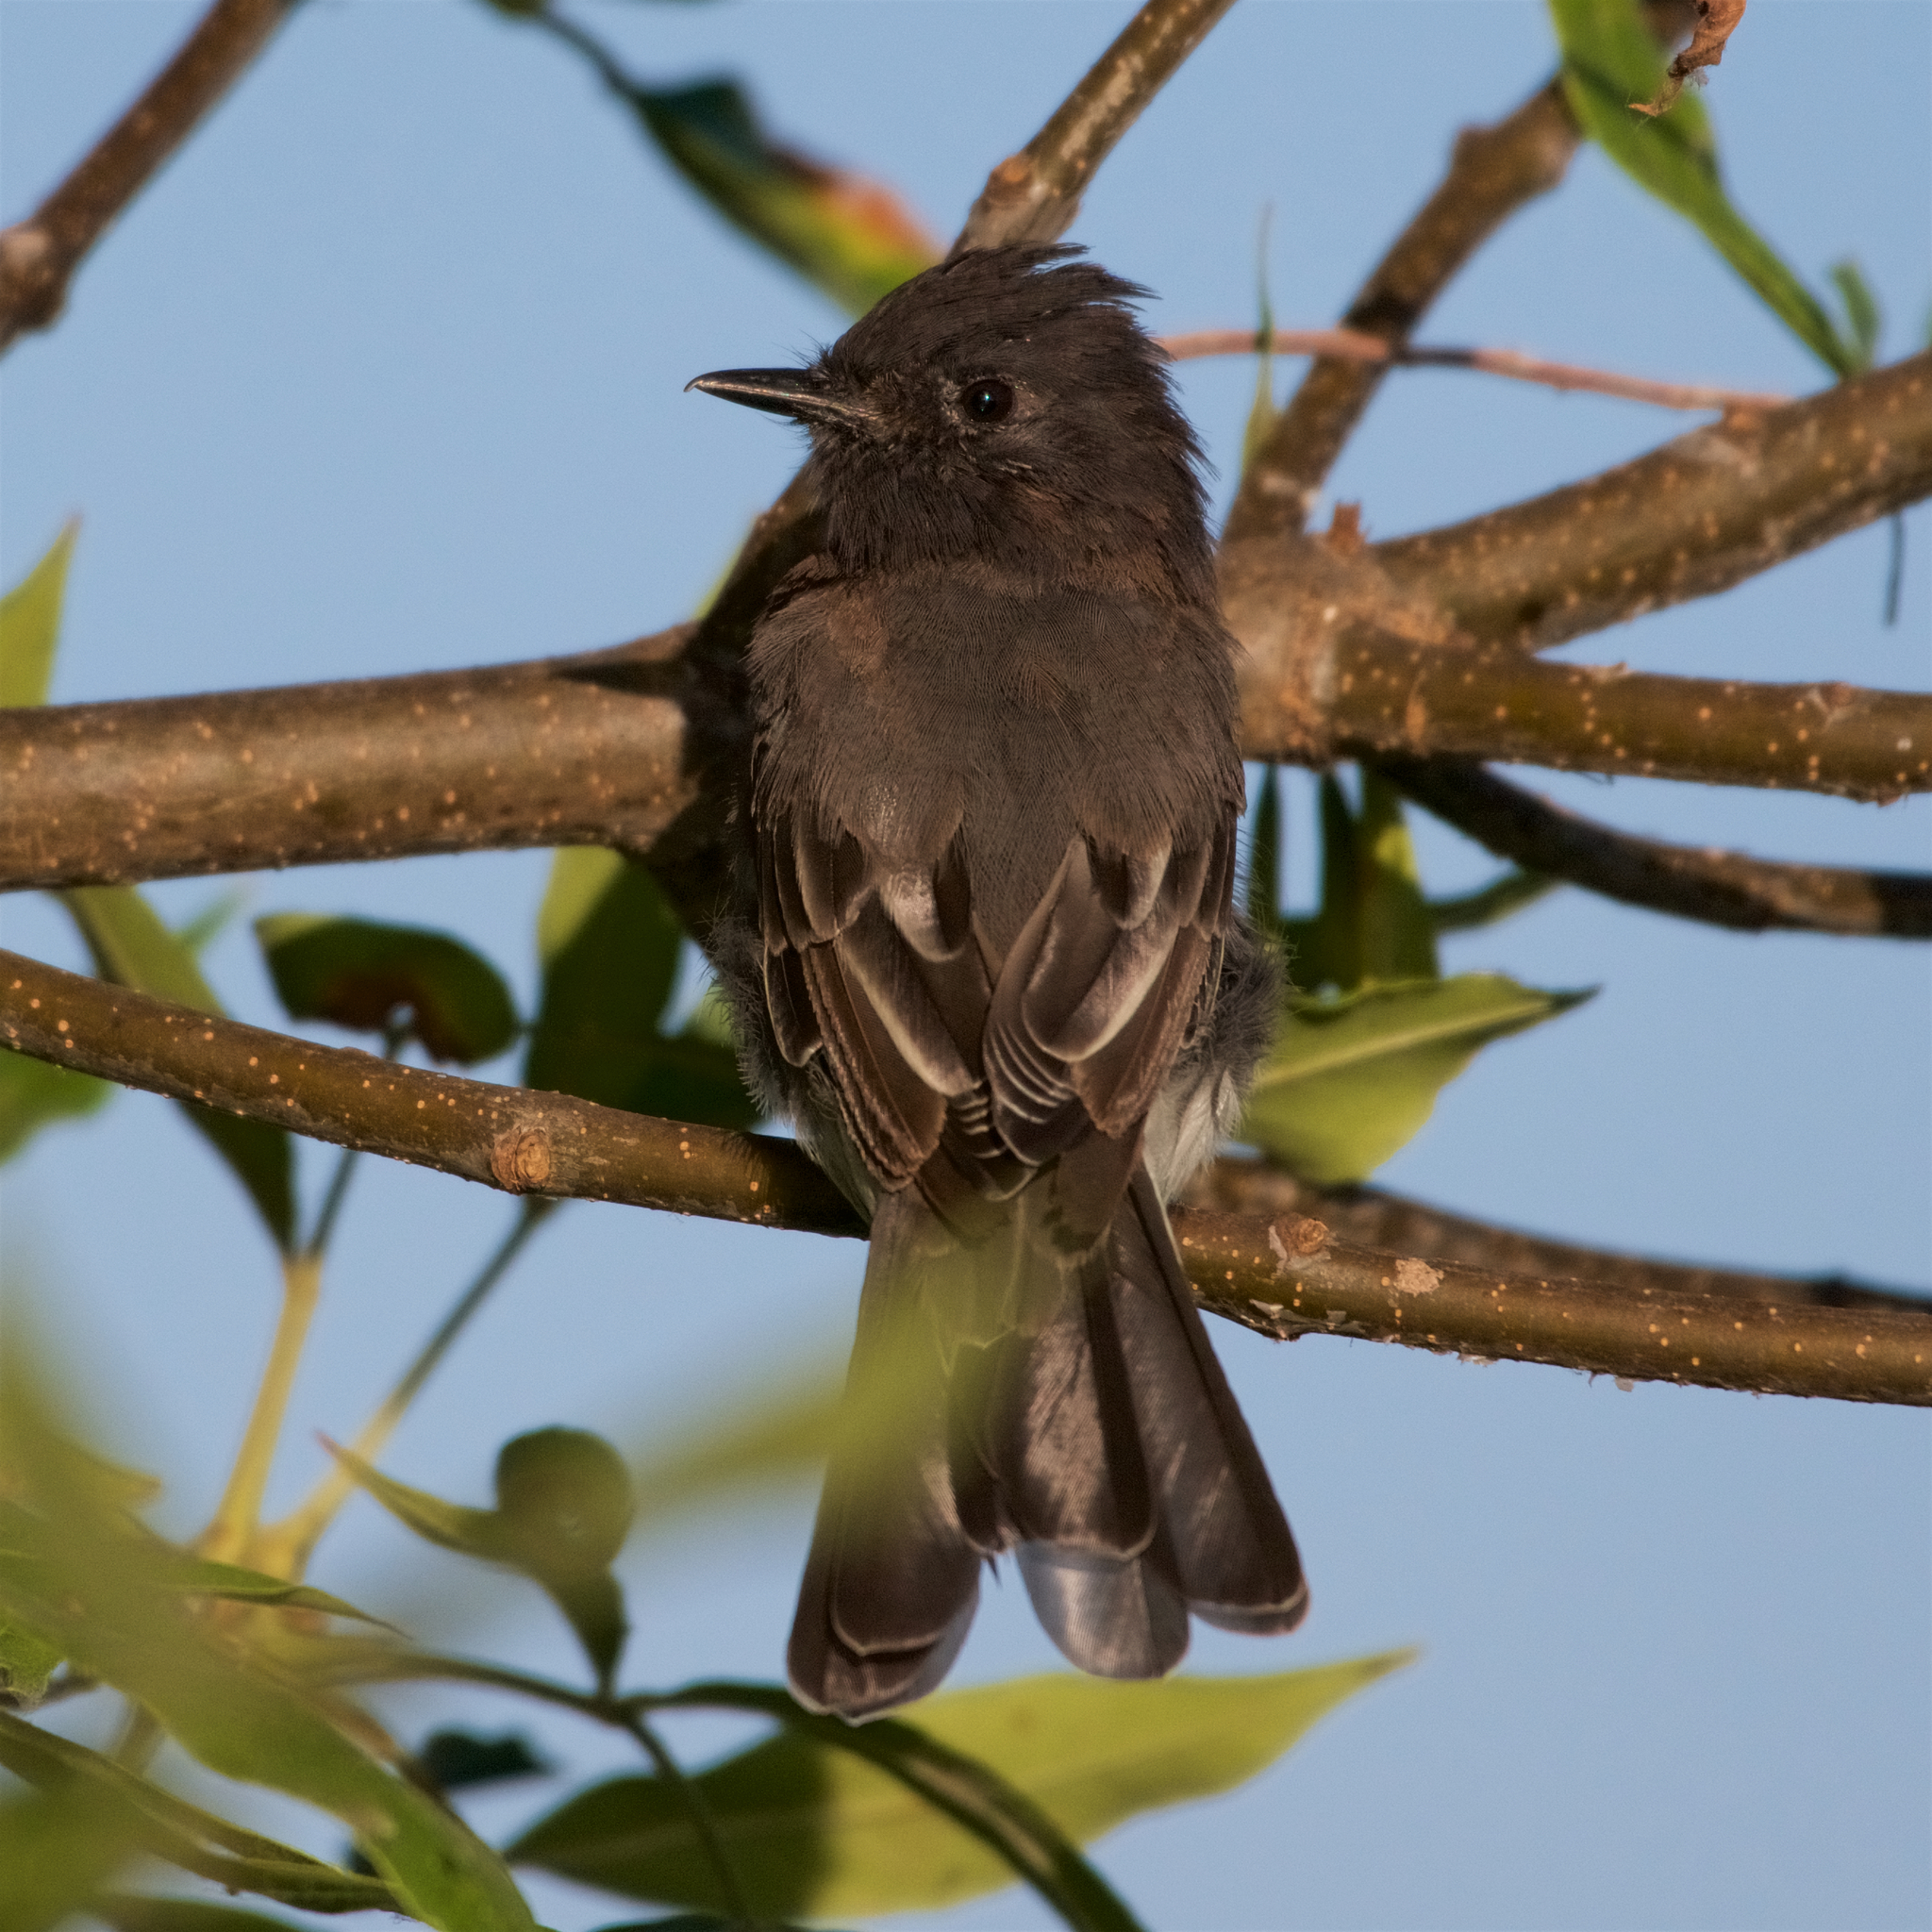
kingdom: Animalia
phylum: Chordata
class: Aves
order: Passeriformes
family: Tyrannidae
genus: Sayornis
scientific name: Sayornis nigricans
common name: Black phoebe
